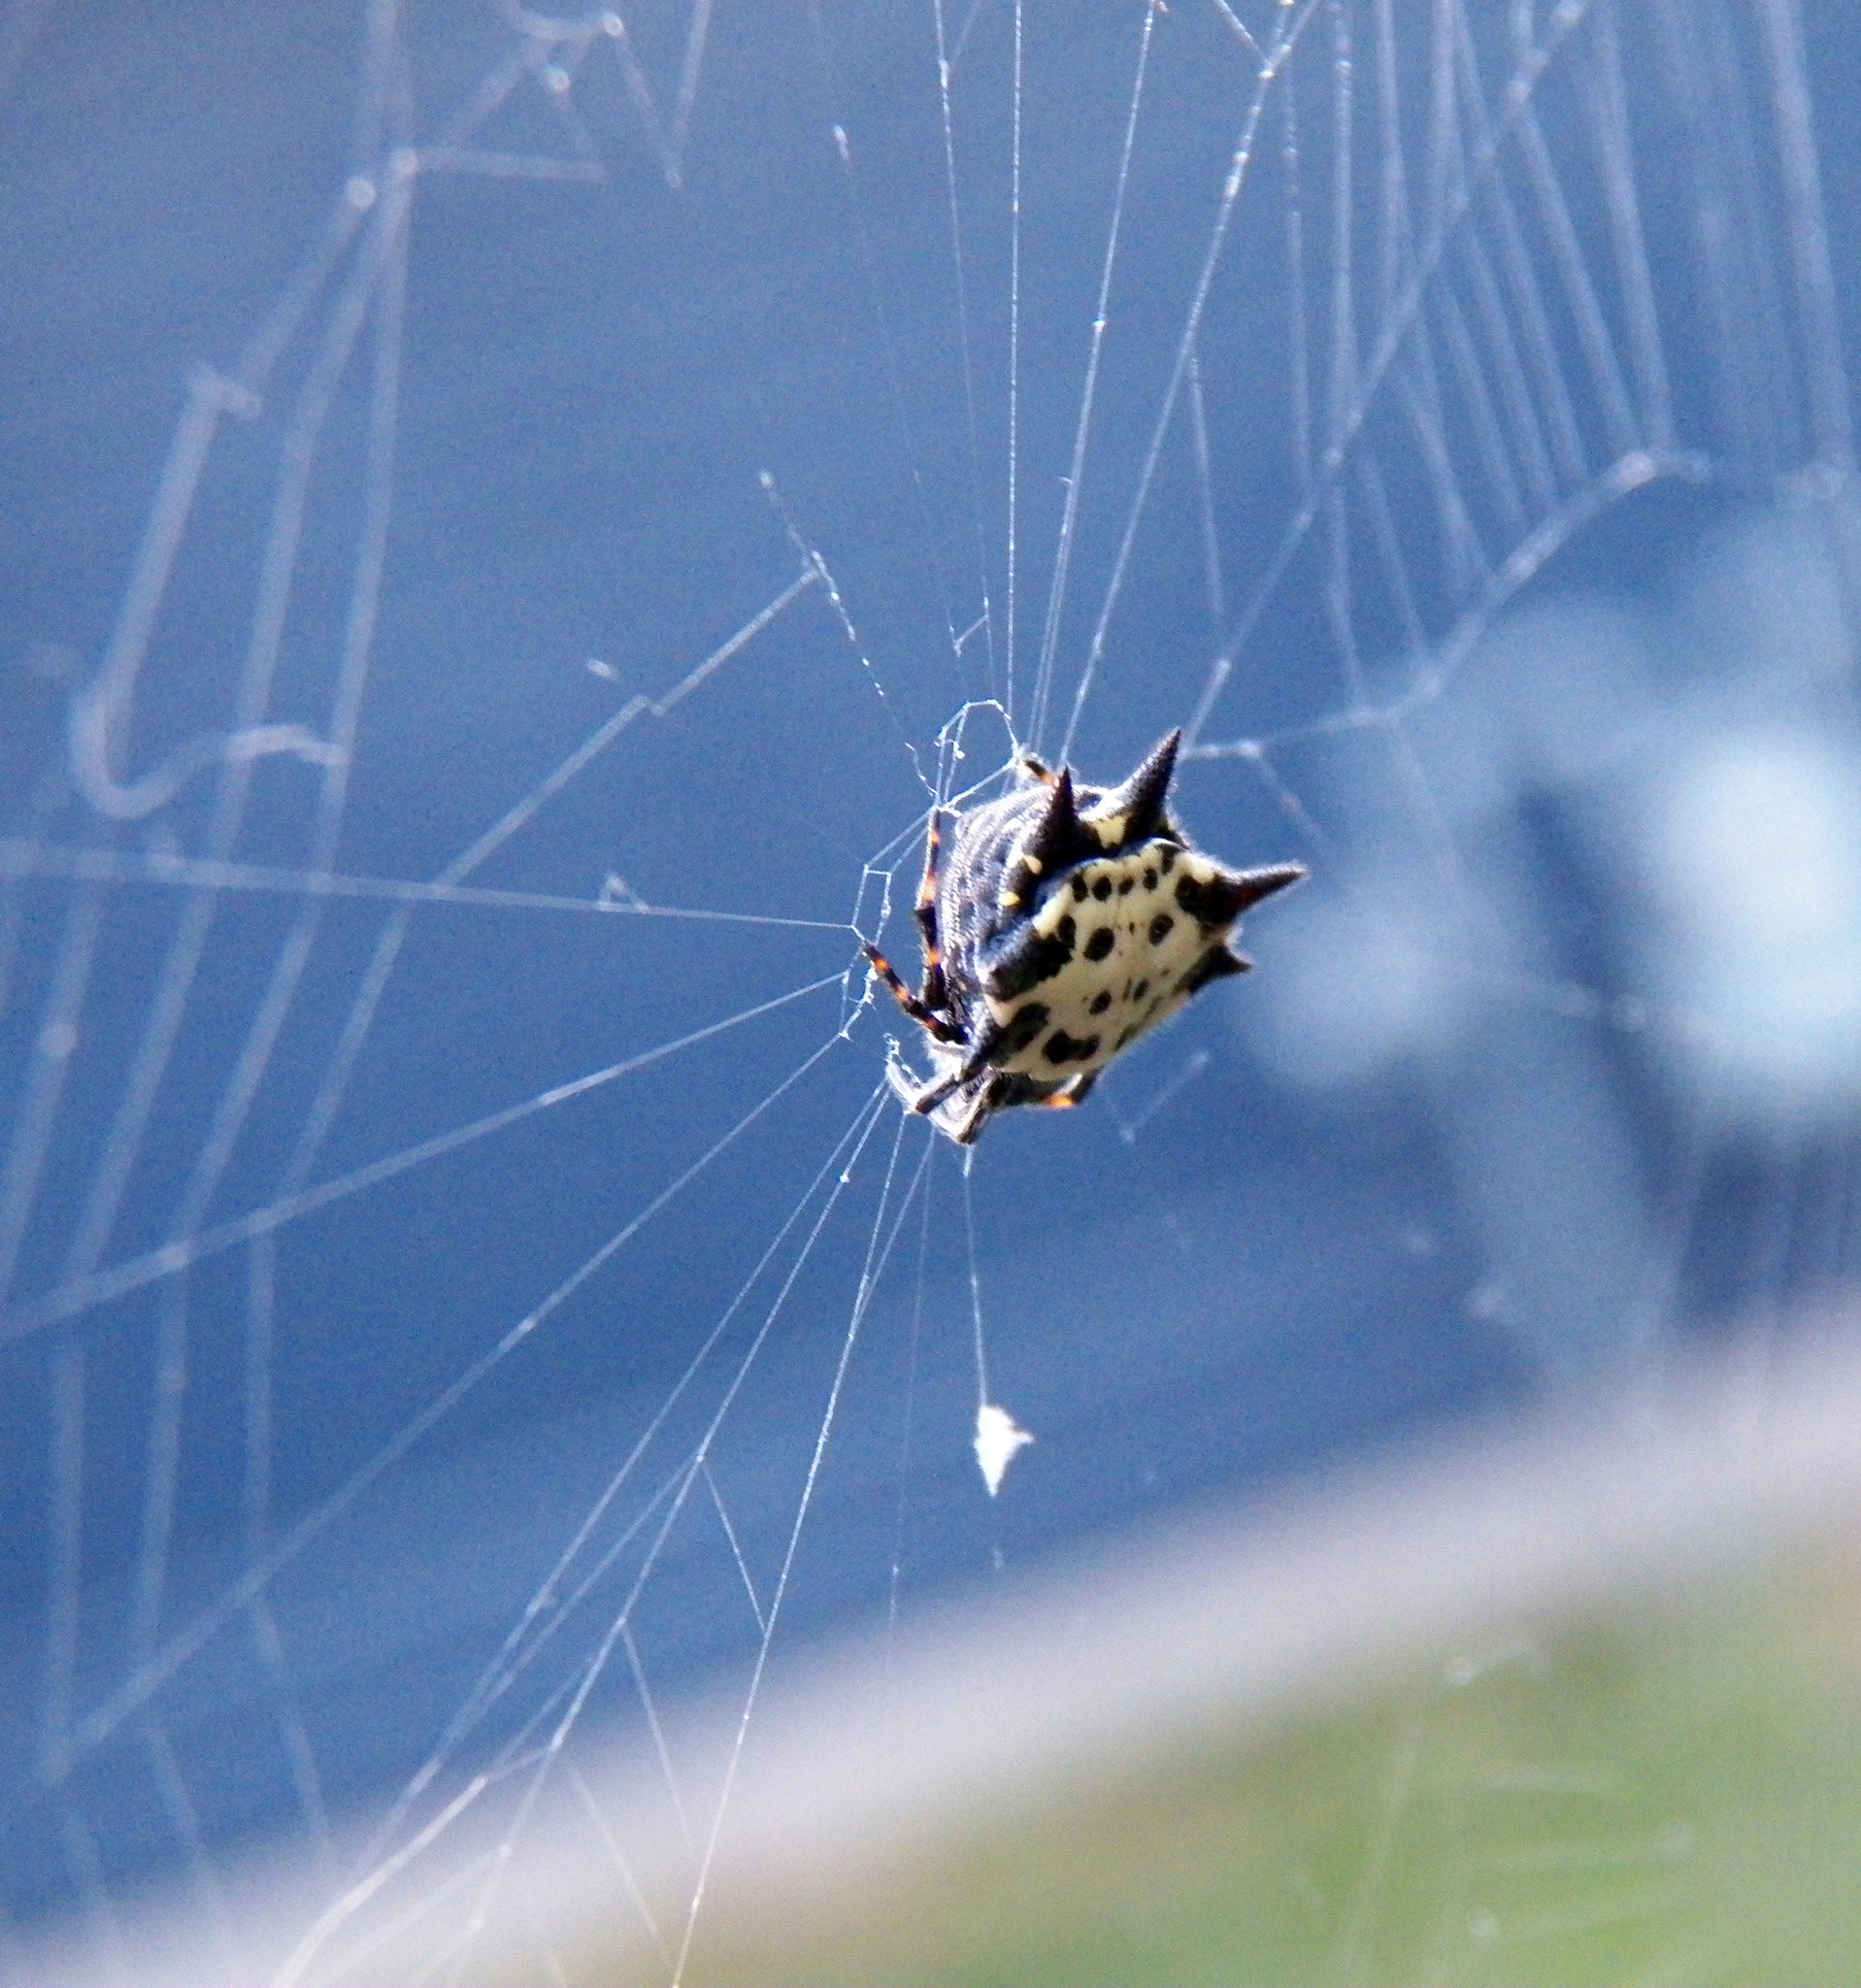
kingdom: Animalia
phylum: Arthropoda
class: Arachnida
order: Araneae
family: Araneidae
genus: Gasteracantha
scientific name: Gasteracantha cancriformis
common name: Orb weavers
